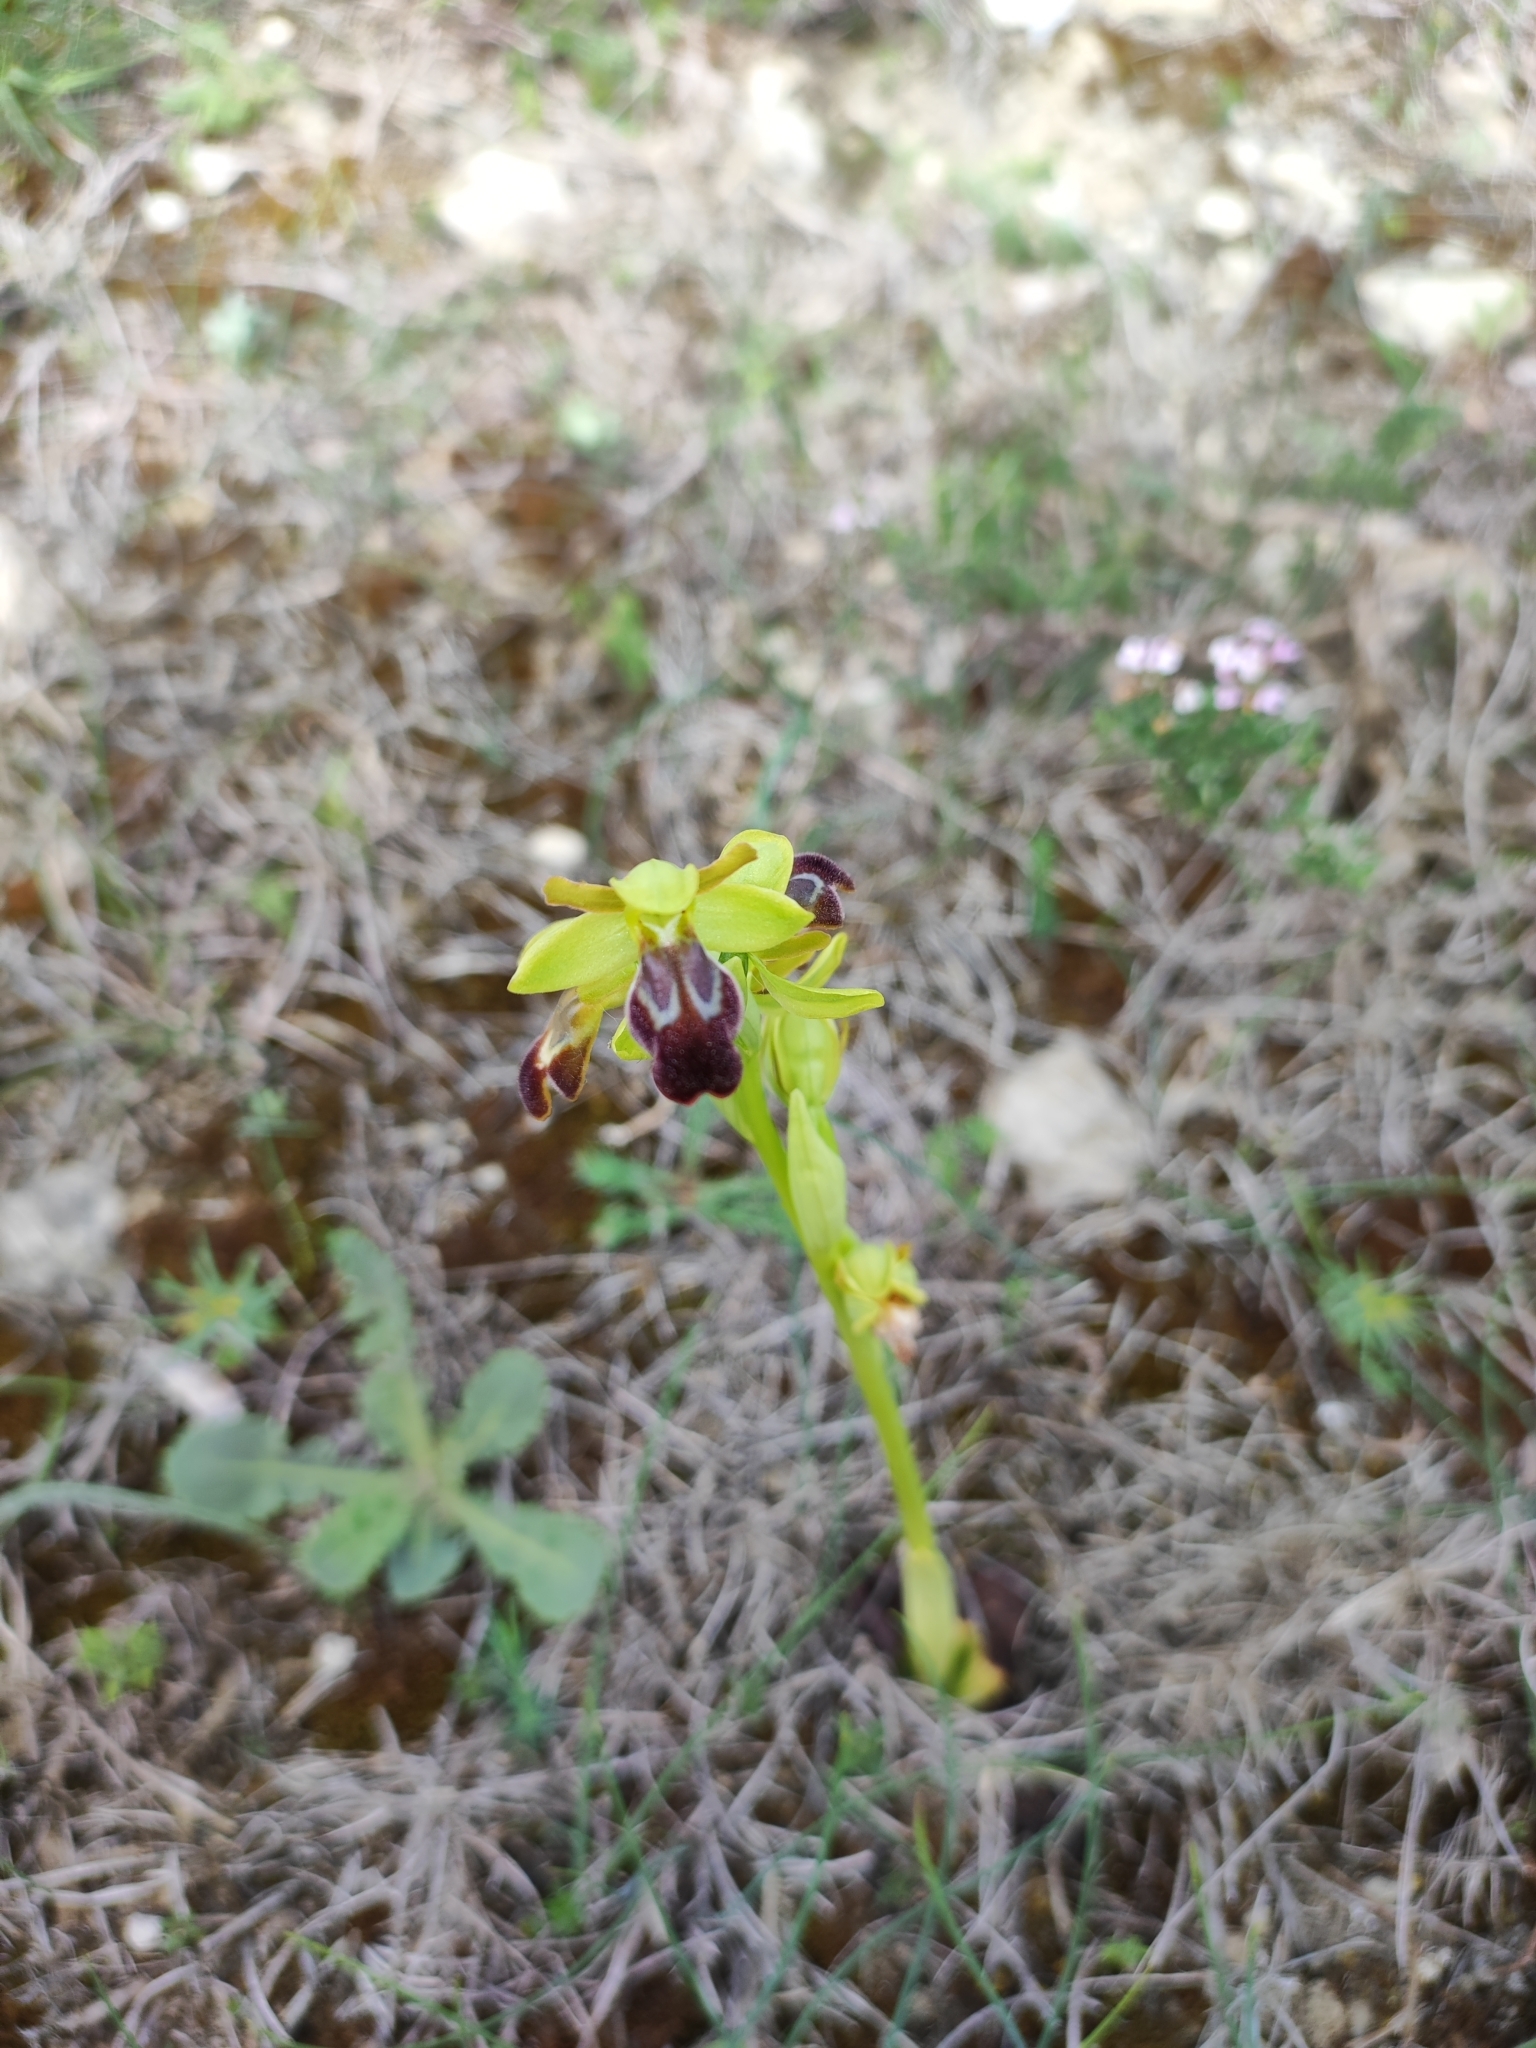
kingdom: Plantae
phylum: Tracheophyta
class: Liliopsida
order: Asparagales
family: Orchidaceae
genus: Ophrys
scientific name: Ophrys fusca
